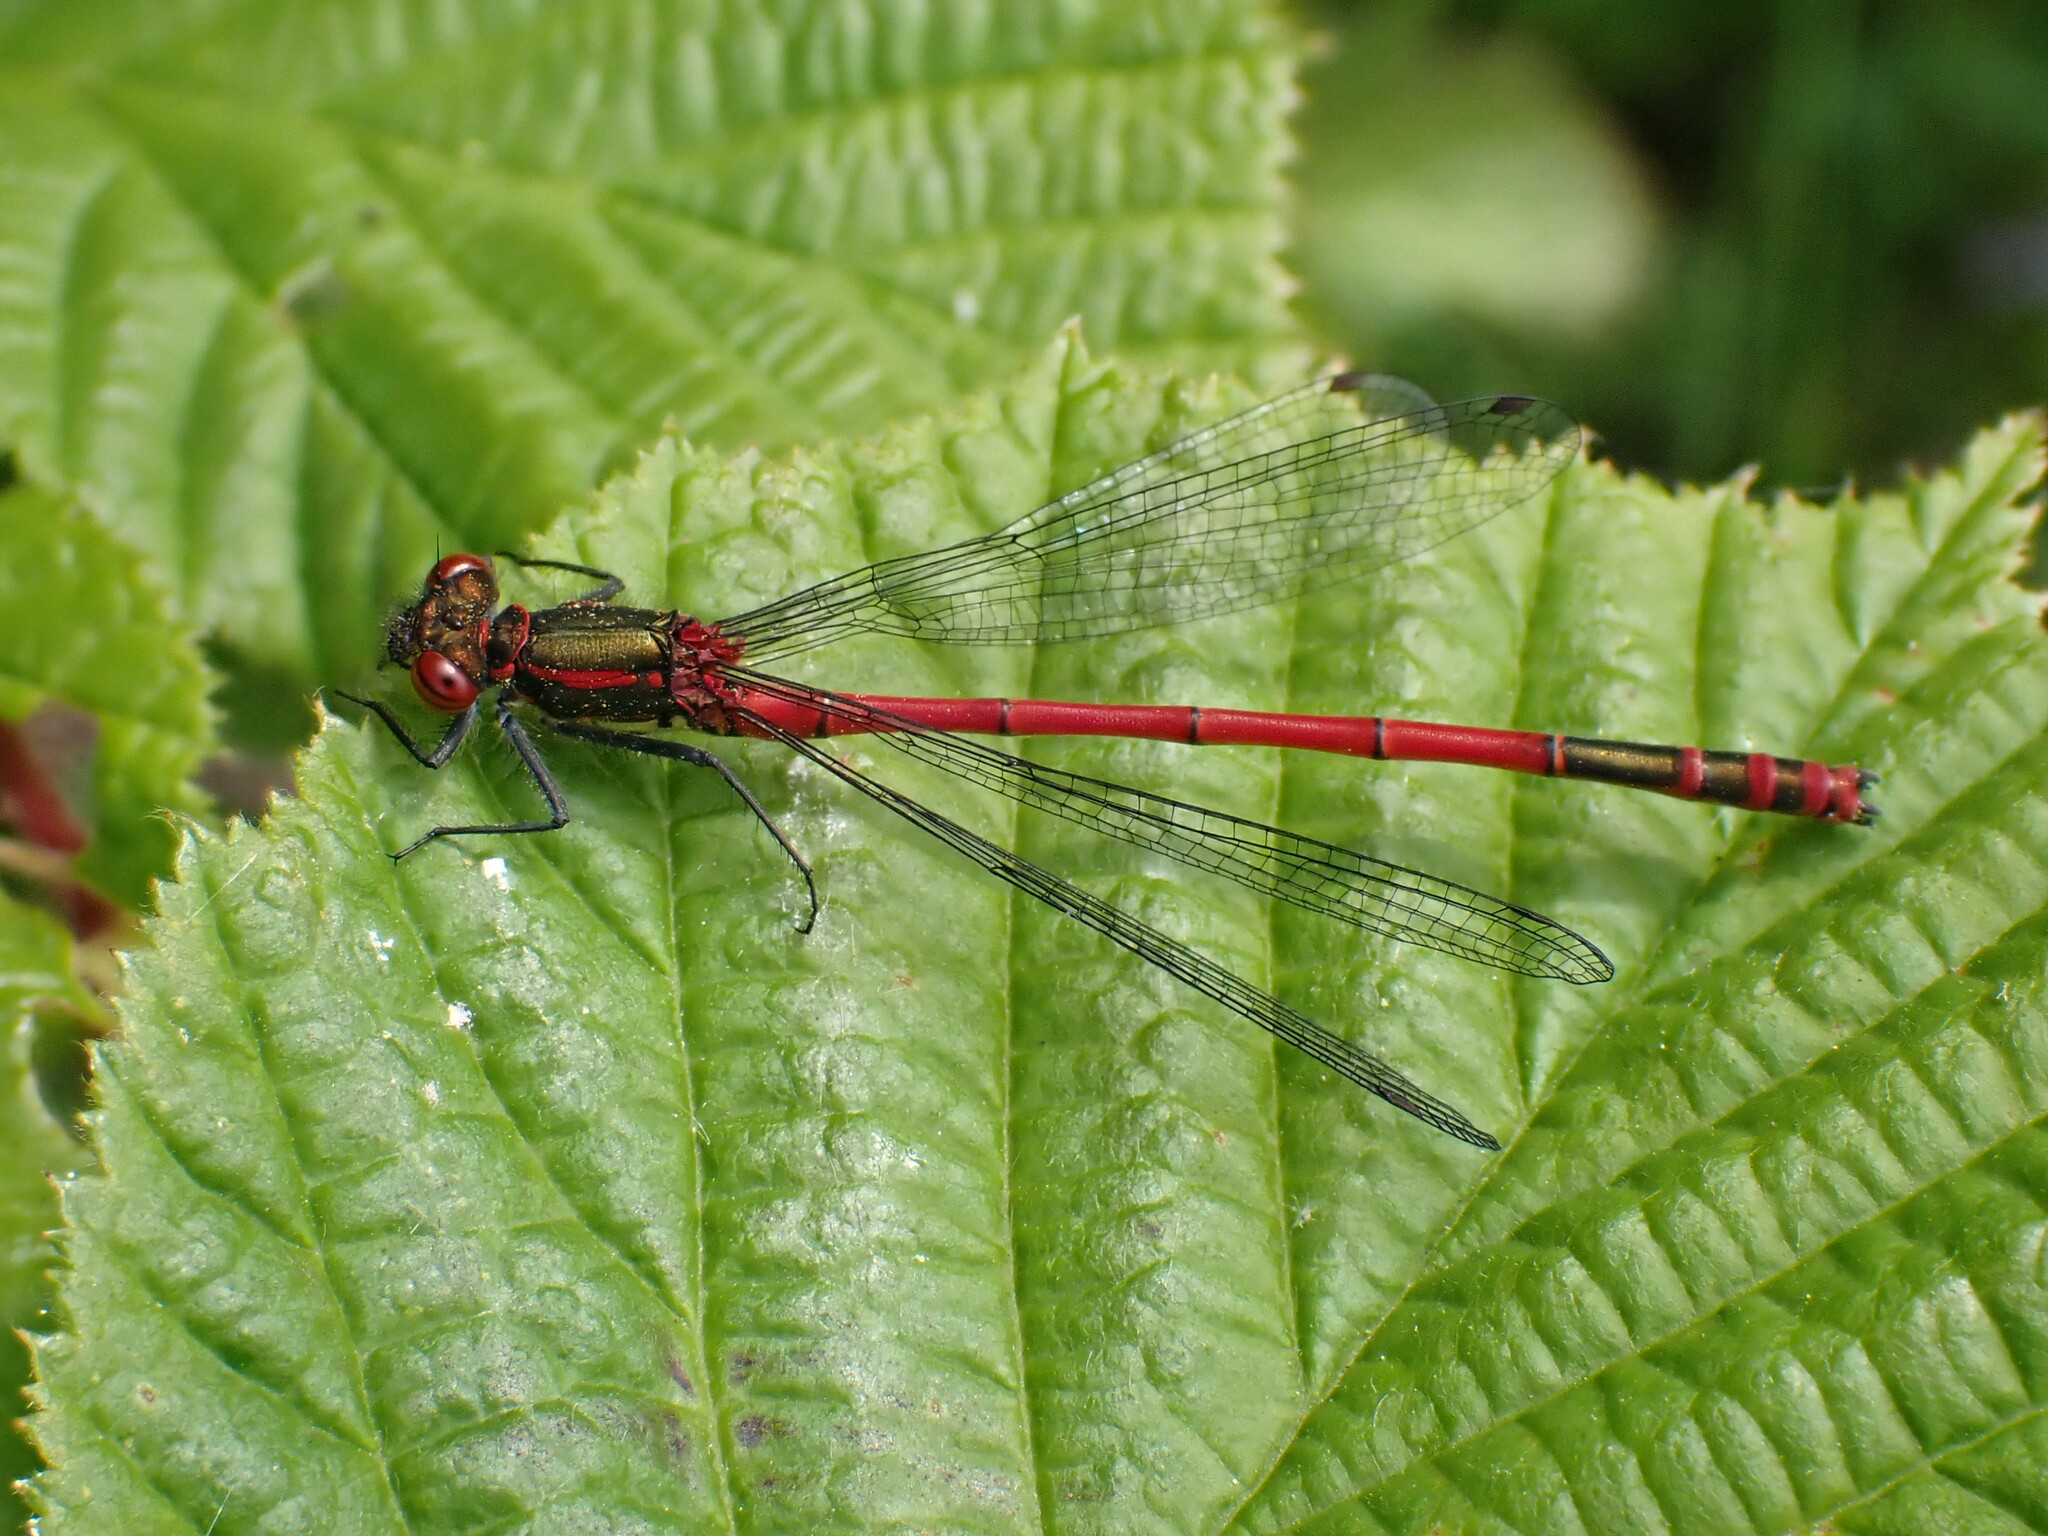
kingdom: Animalia
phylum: Arthropoda
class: Insecta
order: Odonata
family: Coenagrionidae
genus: Pyrrhosoma
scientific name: Pyrrhosoma nymphula
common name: Large red damsel
